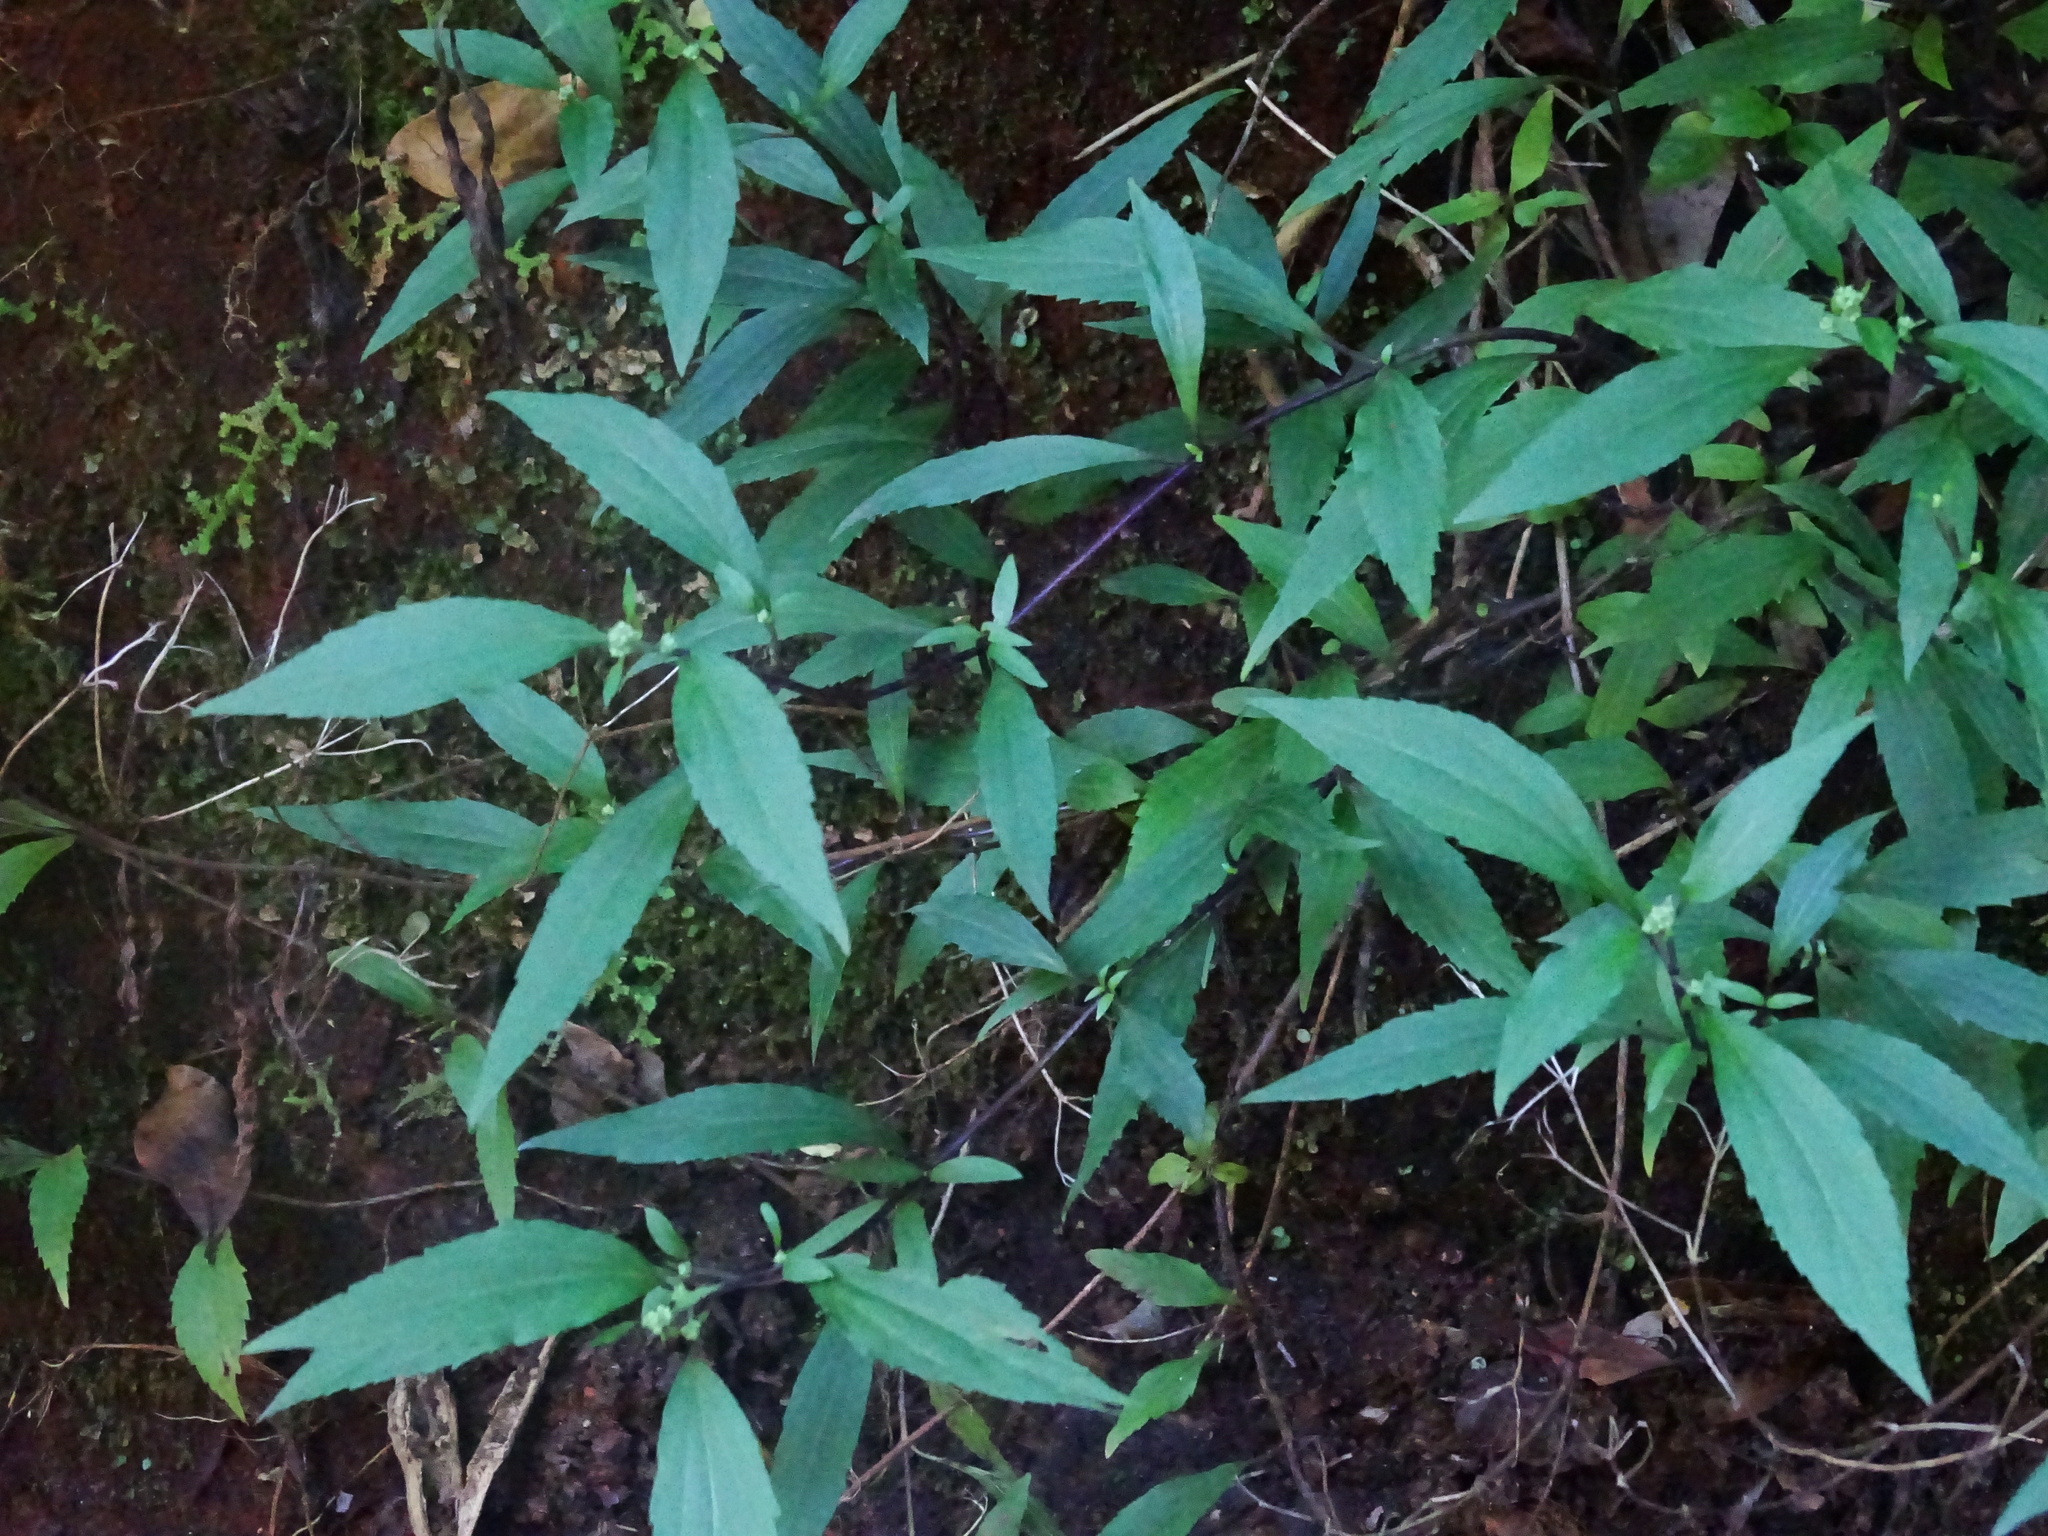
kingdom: Plantae
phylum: Tracheophyta
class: Magnoliopsida
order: Asterales
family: Asteraceae
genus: Ageratina
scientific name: Ageratina riparia
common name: Creeping croftonweed
